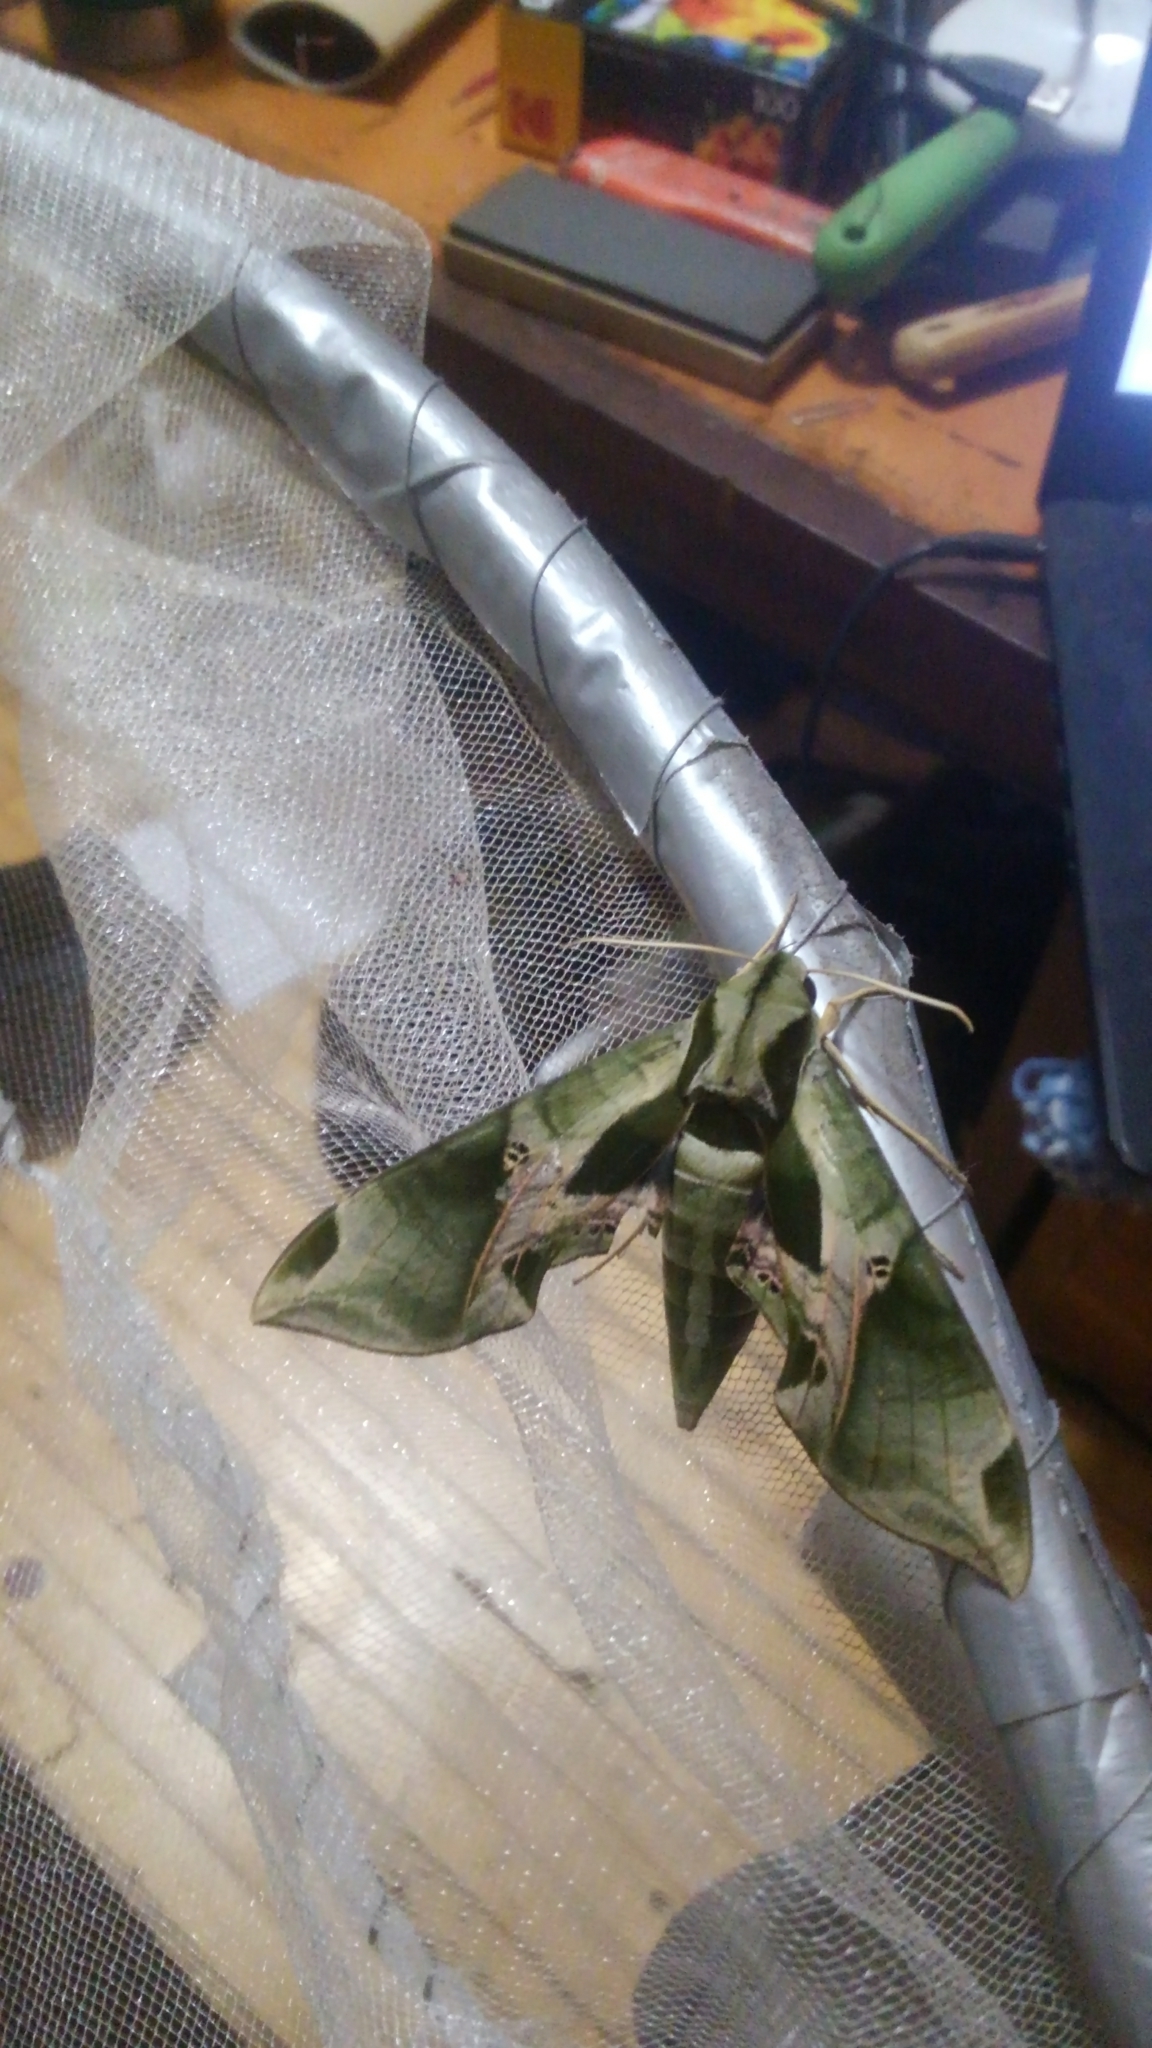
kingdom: Animalia
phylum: Arthropoda
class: Insecta
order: Lepidoptera
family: Sphingidae
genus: Eumorpha
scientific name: Eumorpha pandorus
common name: Pandora sphinx
